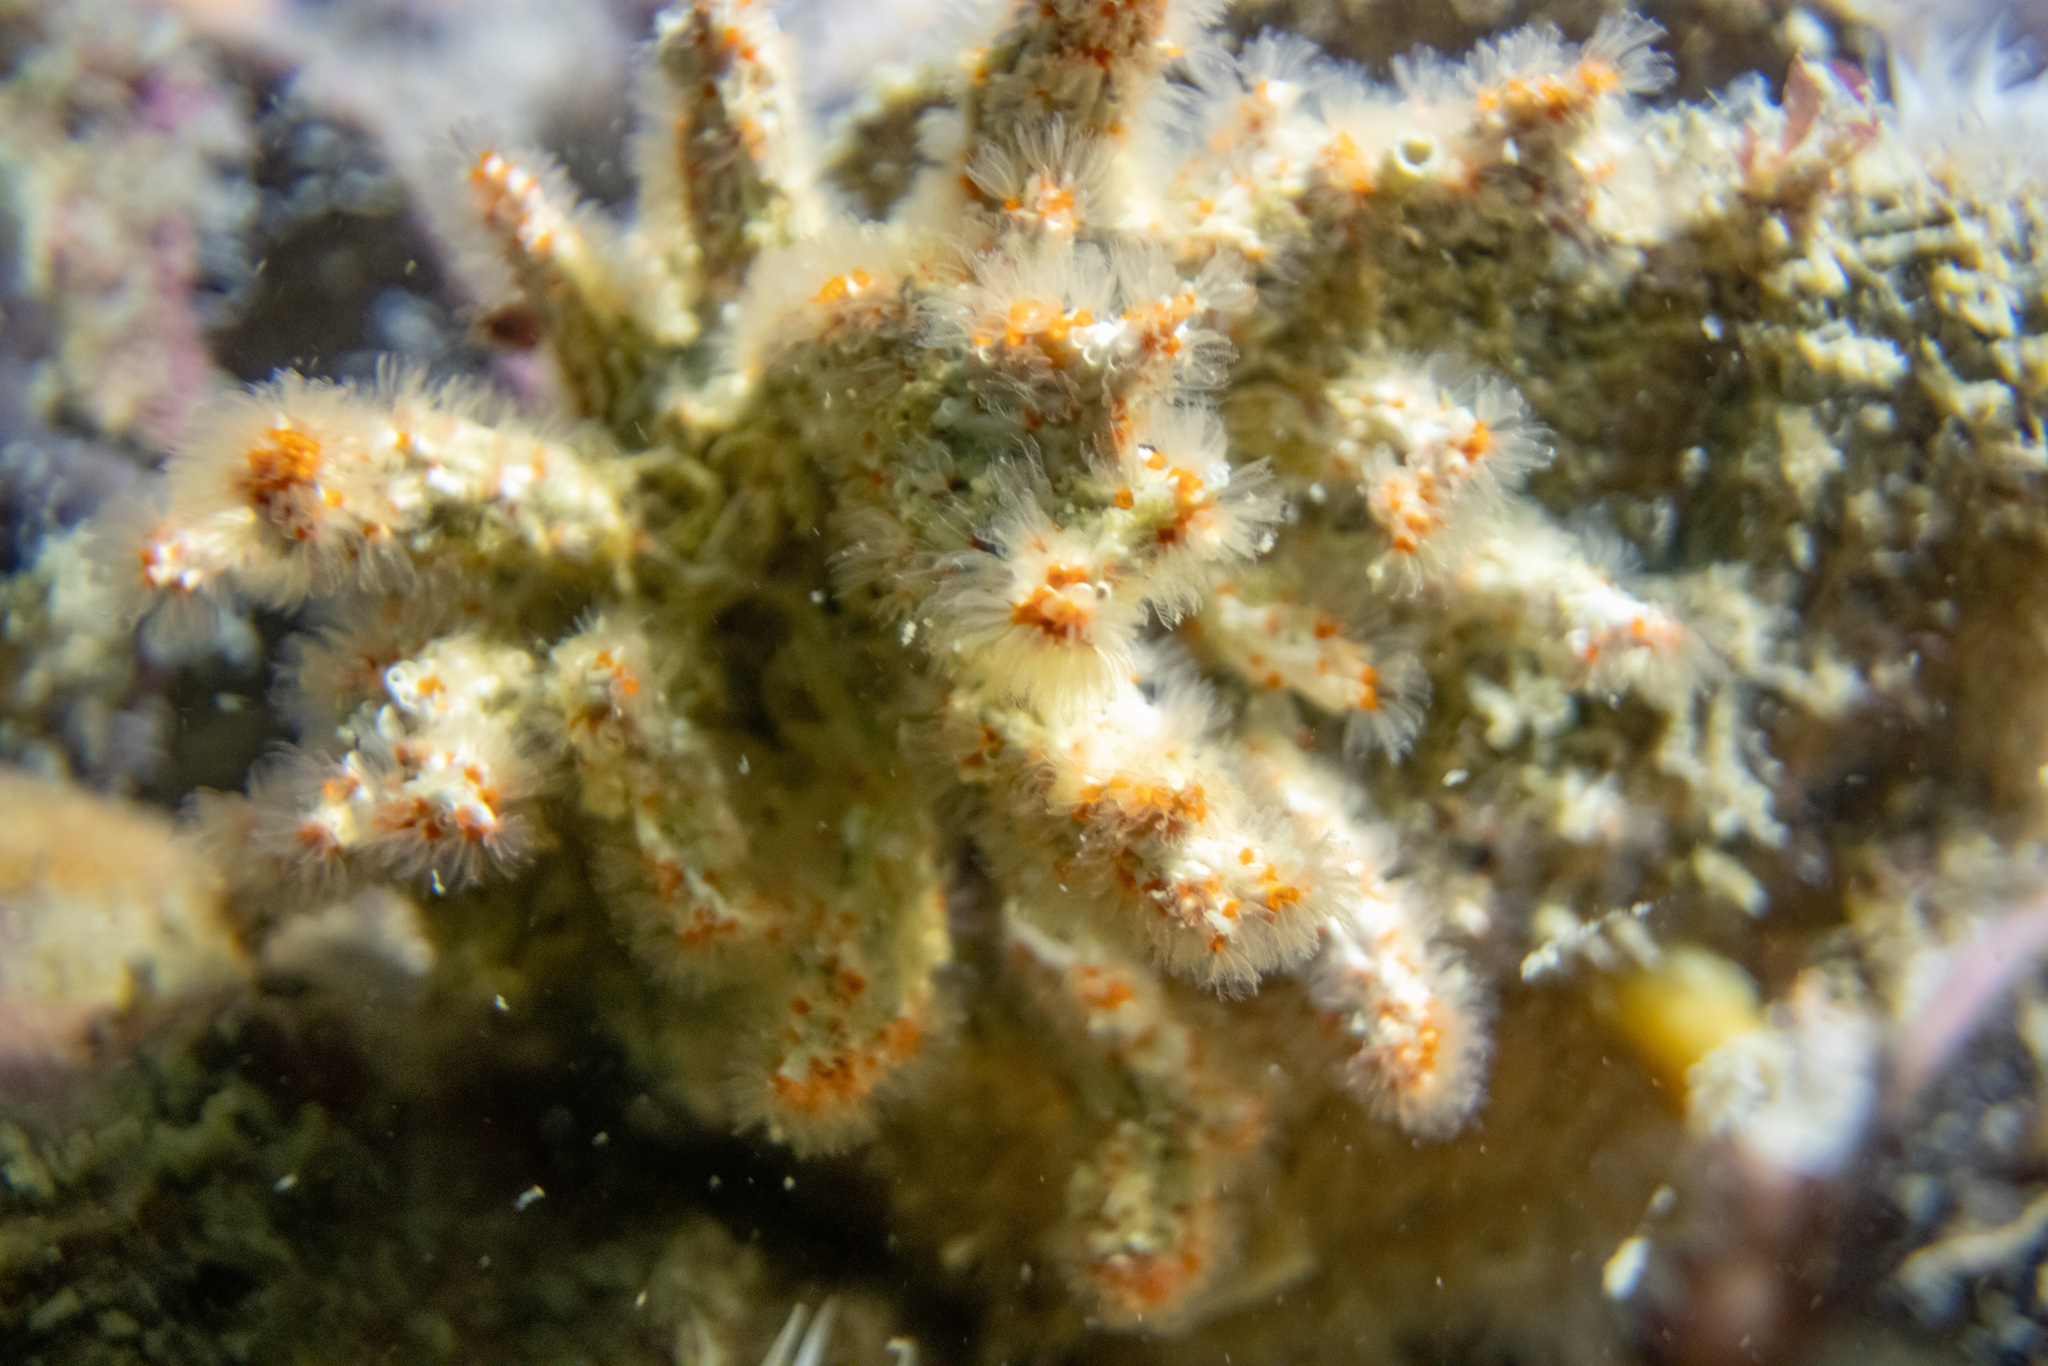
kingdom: Animalia
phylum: Annelida
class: Polychaeta
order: Sabellida
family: Serpulidae
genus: Salmacina
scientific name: Salmacina australis
